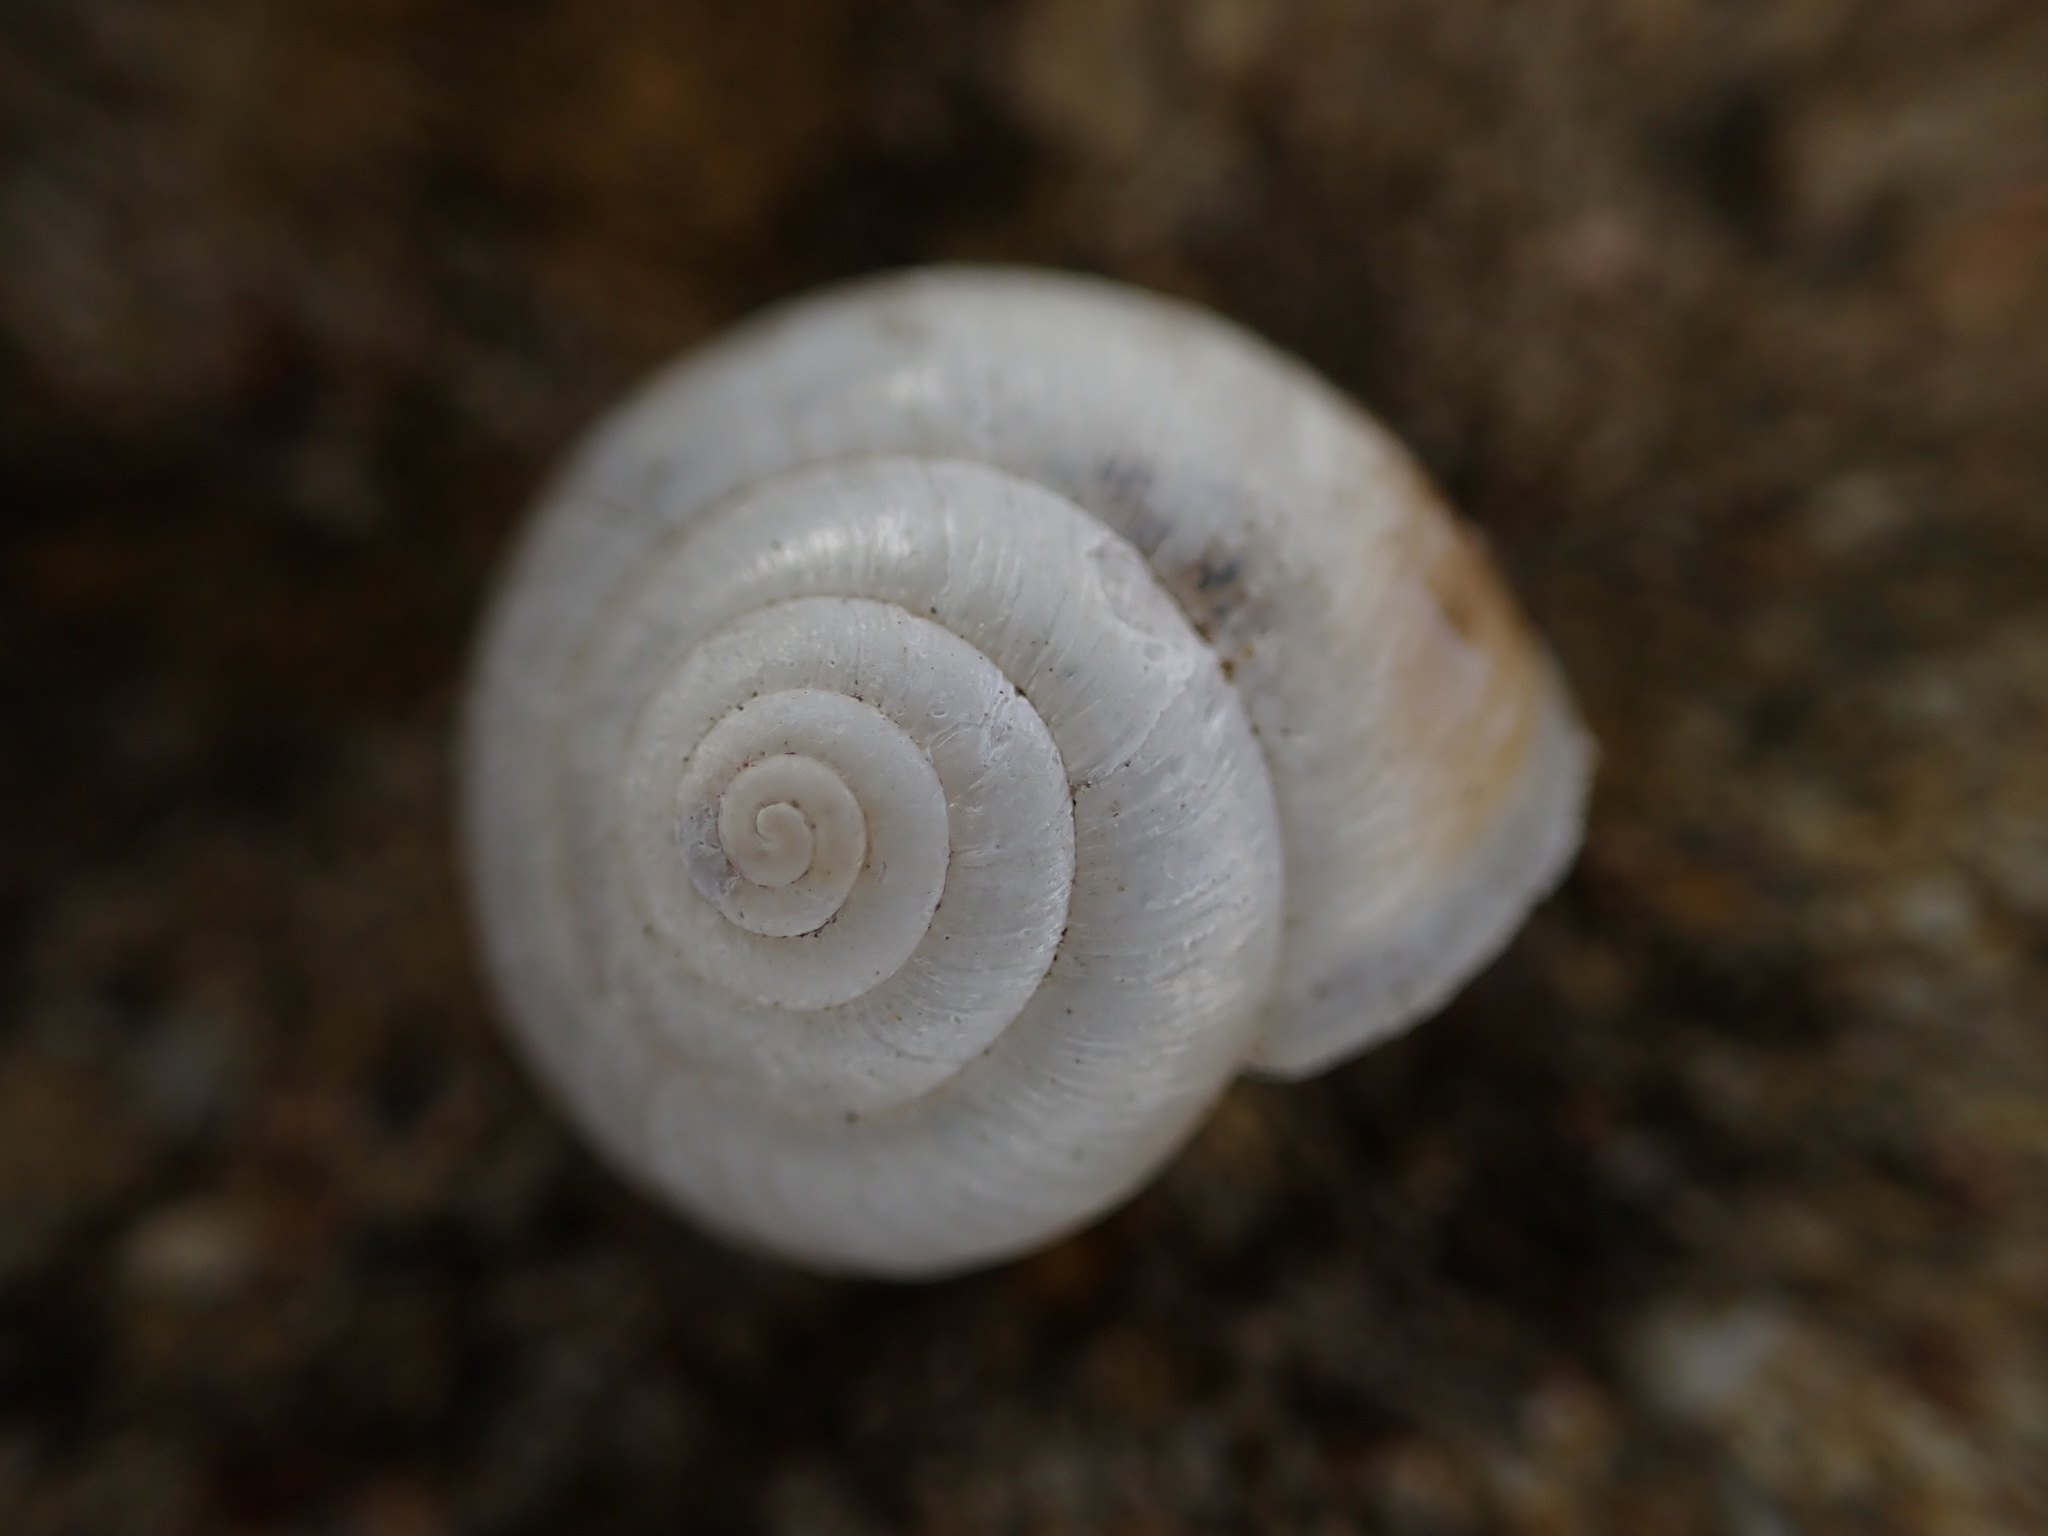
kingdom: Animalia
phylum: Mollusca
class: Gastropoda
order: Stylommatophora
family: Hygromiidae
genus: Monacha
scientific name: Monacha cantiana
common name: Kentish snail
